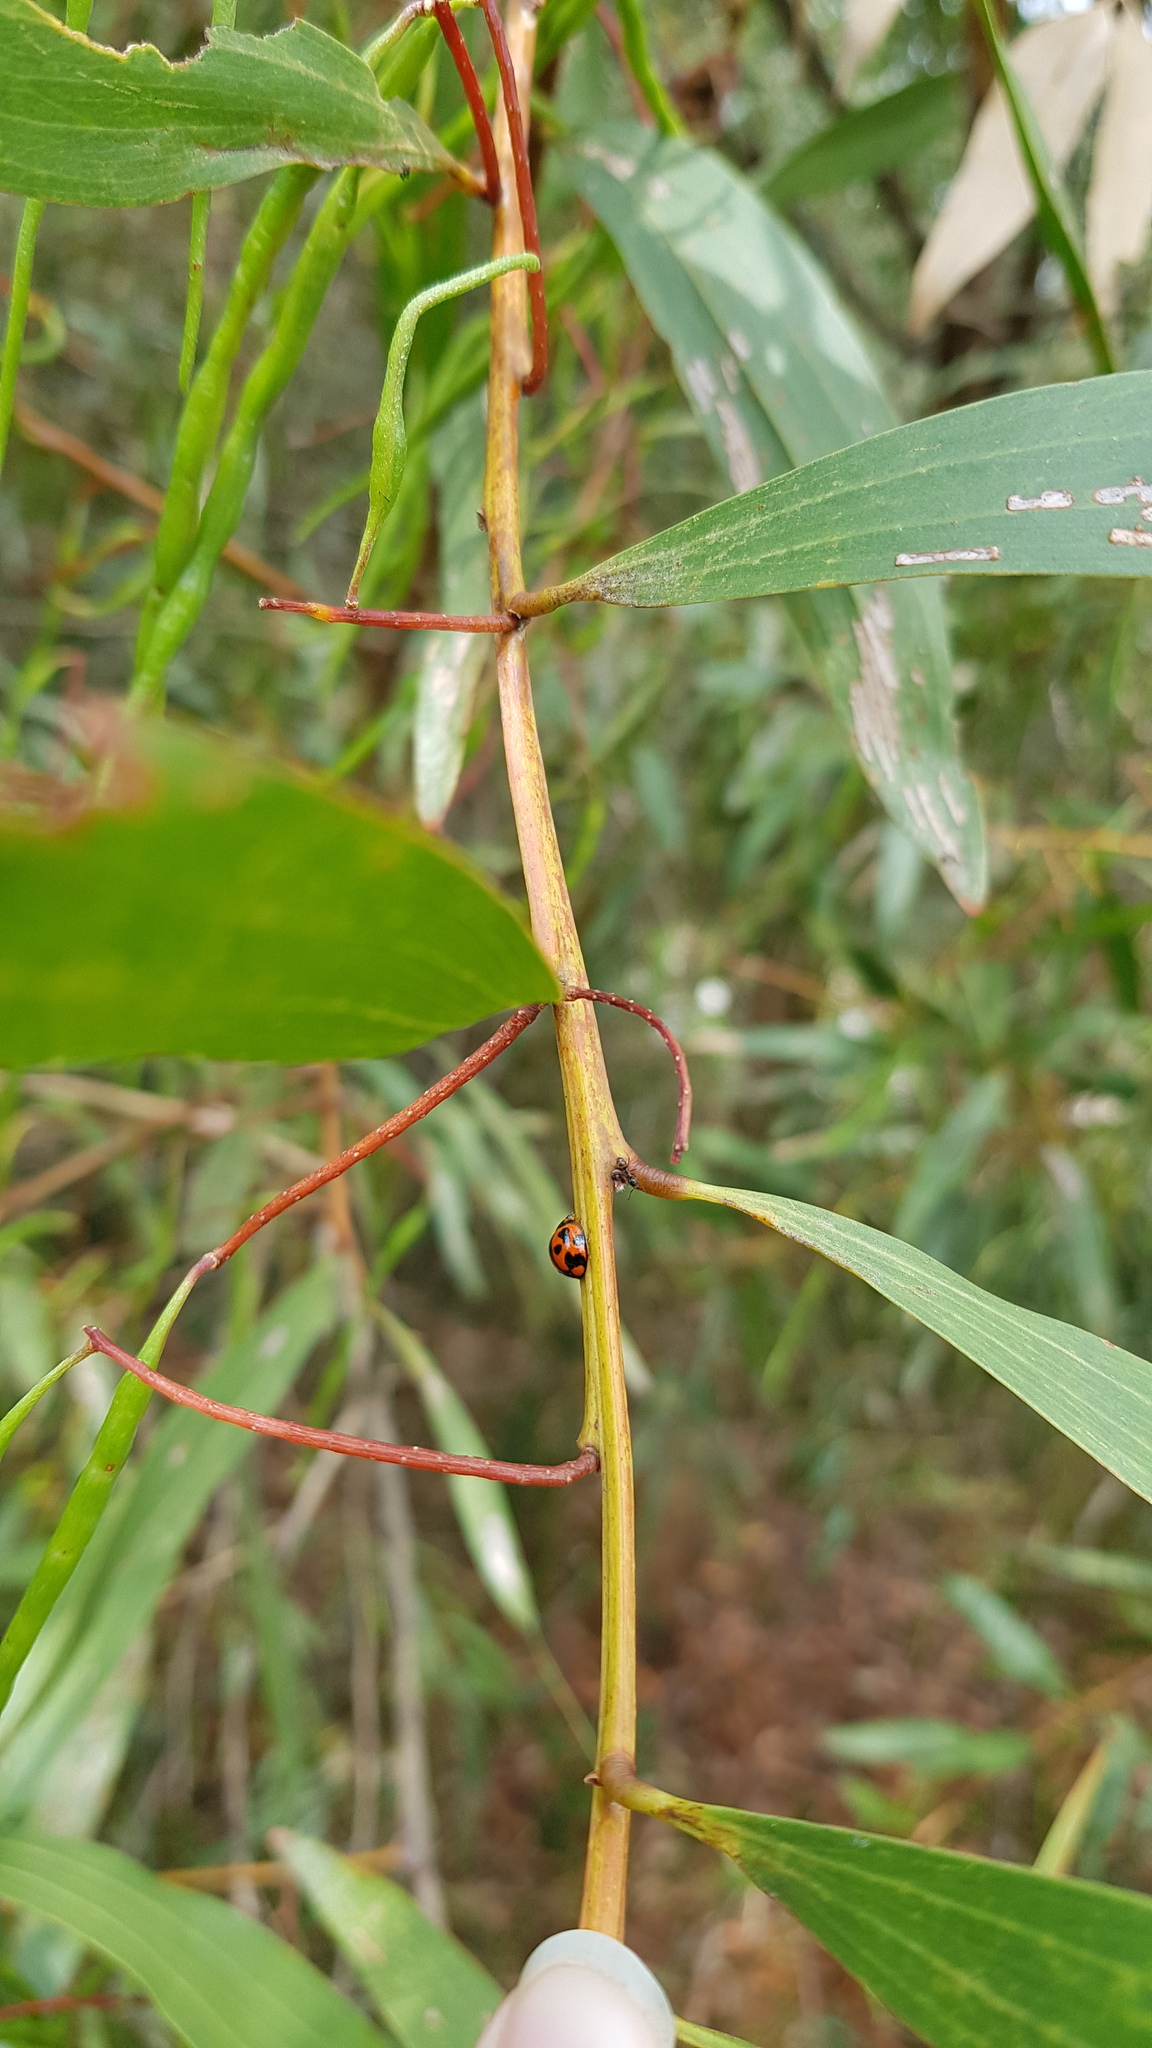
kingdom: Animalia
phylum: Arthropoda
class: Insecta
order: Coleoptera
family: Coccinellidae
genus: Coelophora
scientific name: Coelophora inaequalis
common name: Common australian lady beetle
